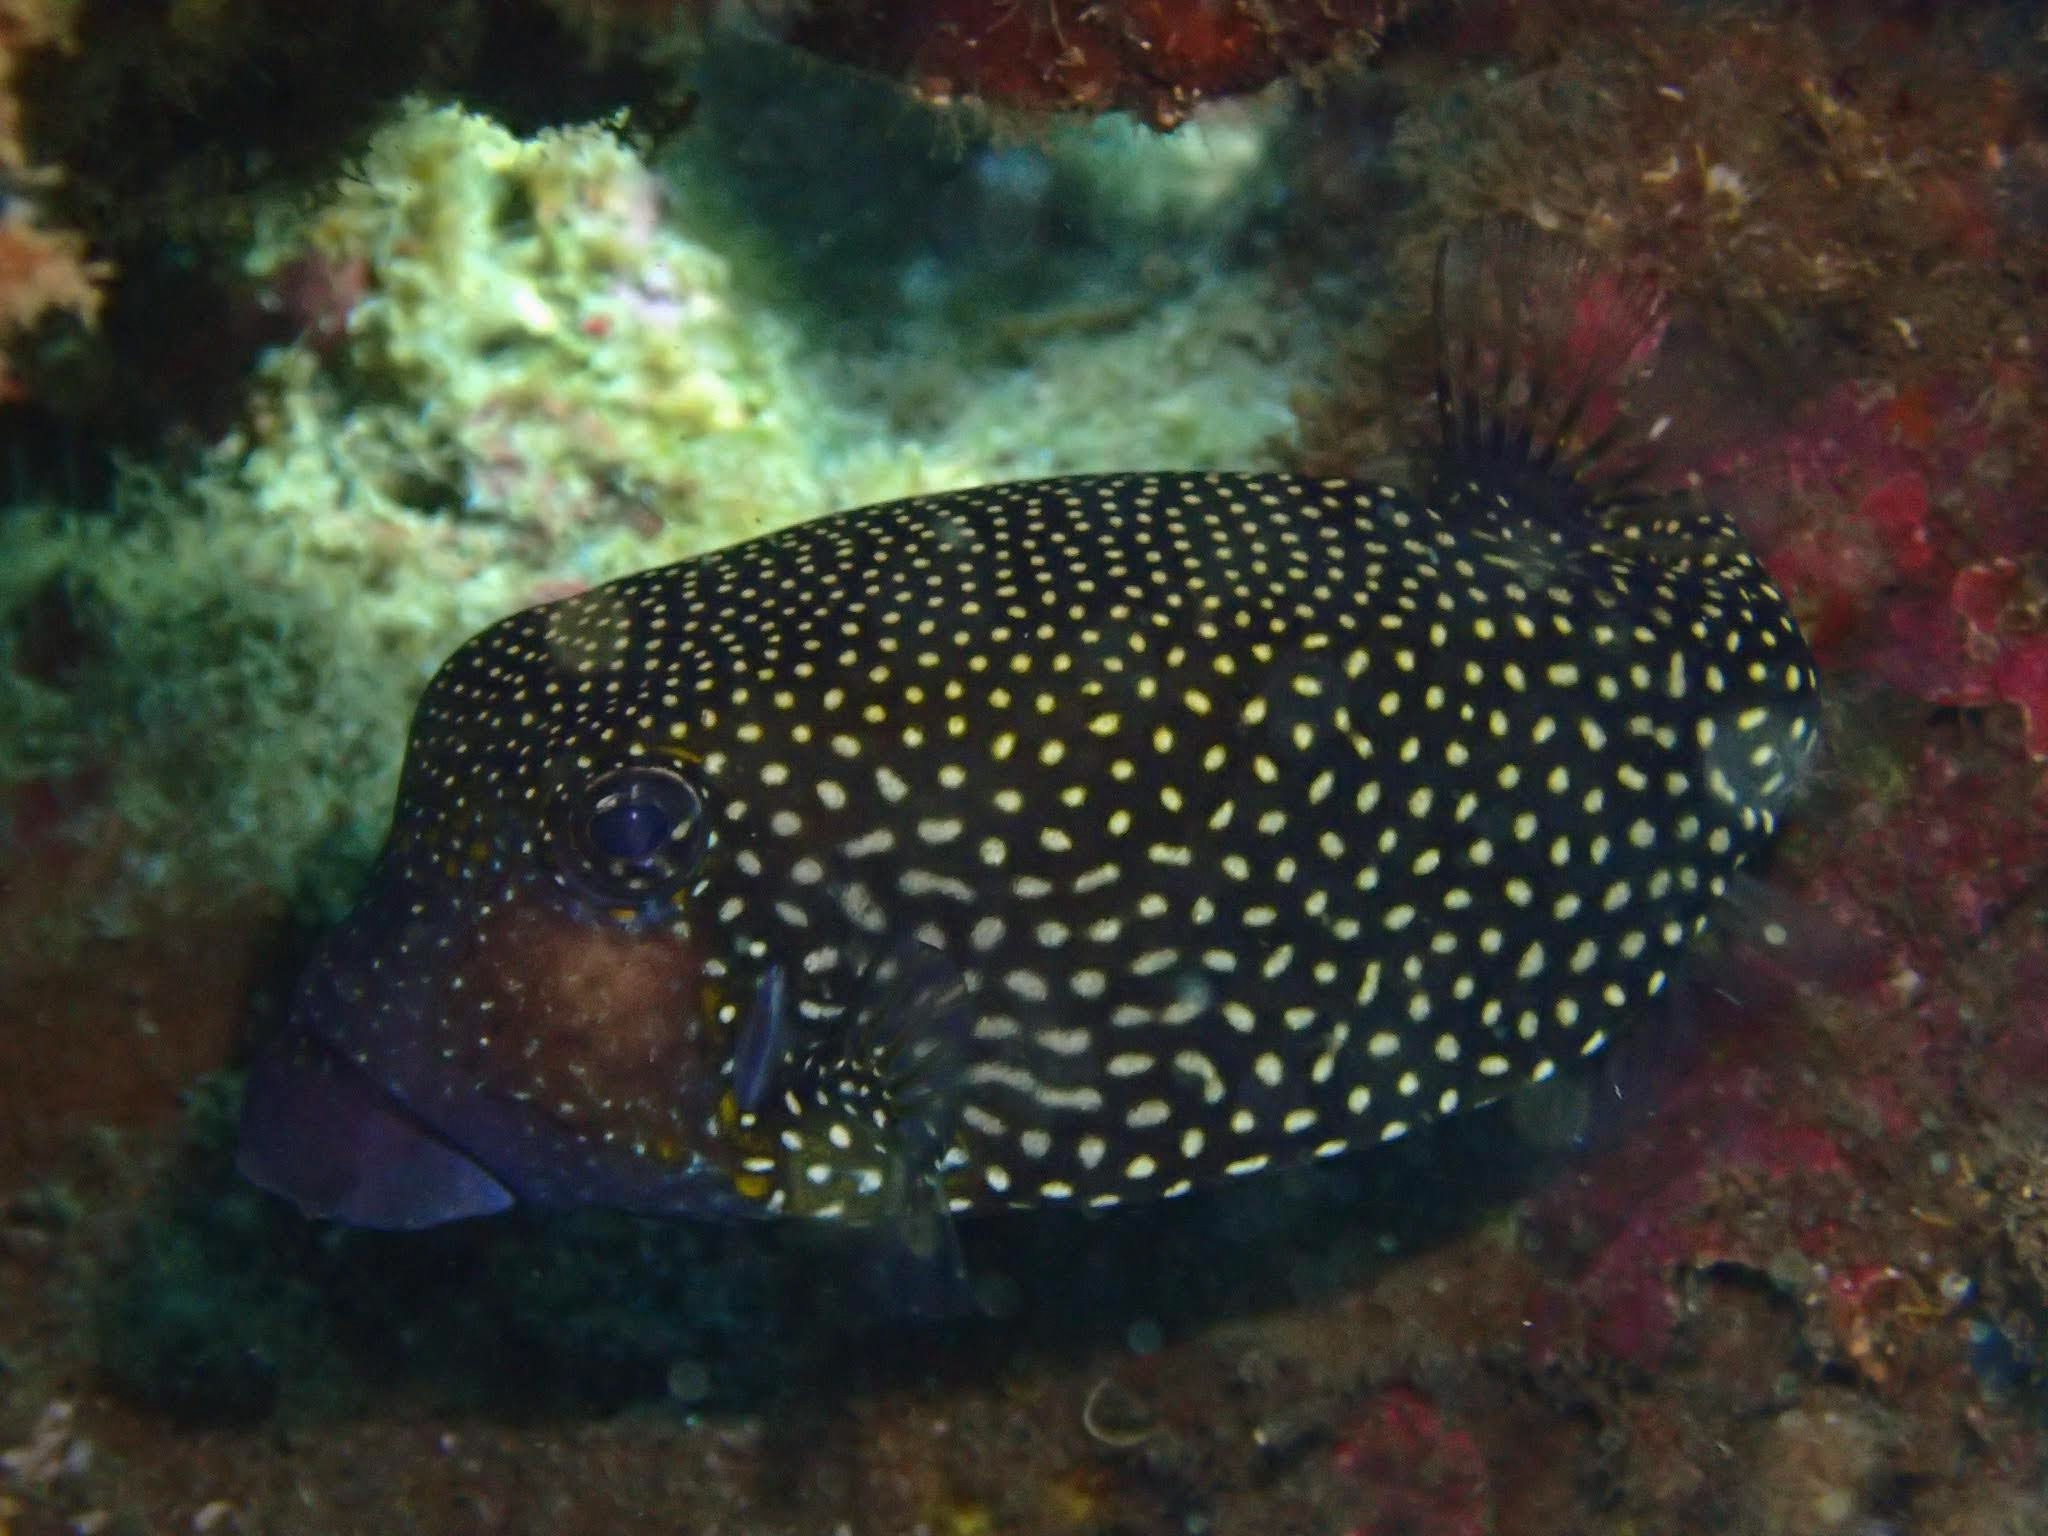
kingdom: Animalia
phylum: Chordata
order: Tetraodontiformes
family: Ostraciidae
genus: Ostracion
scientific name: Ostracion meleagris
